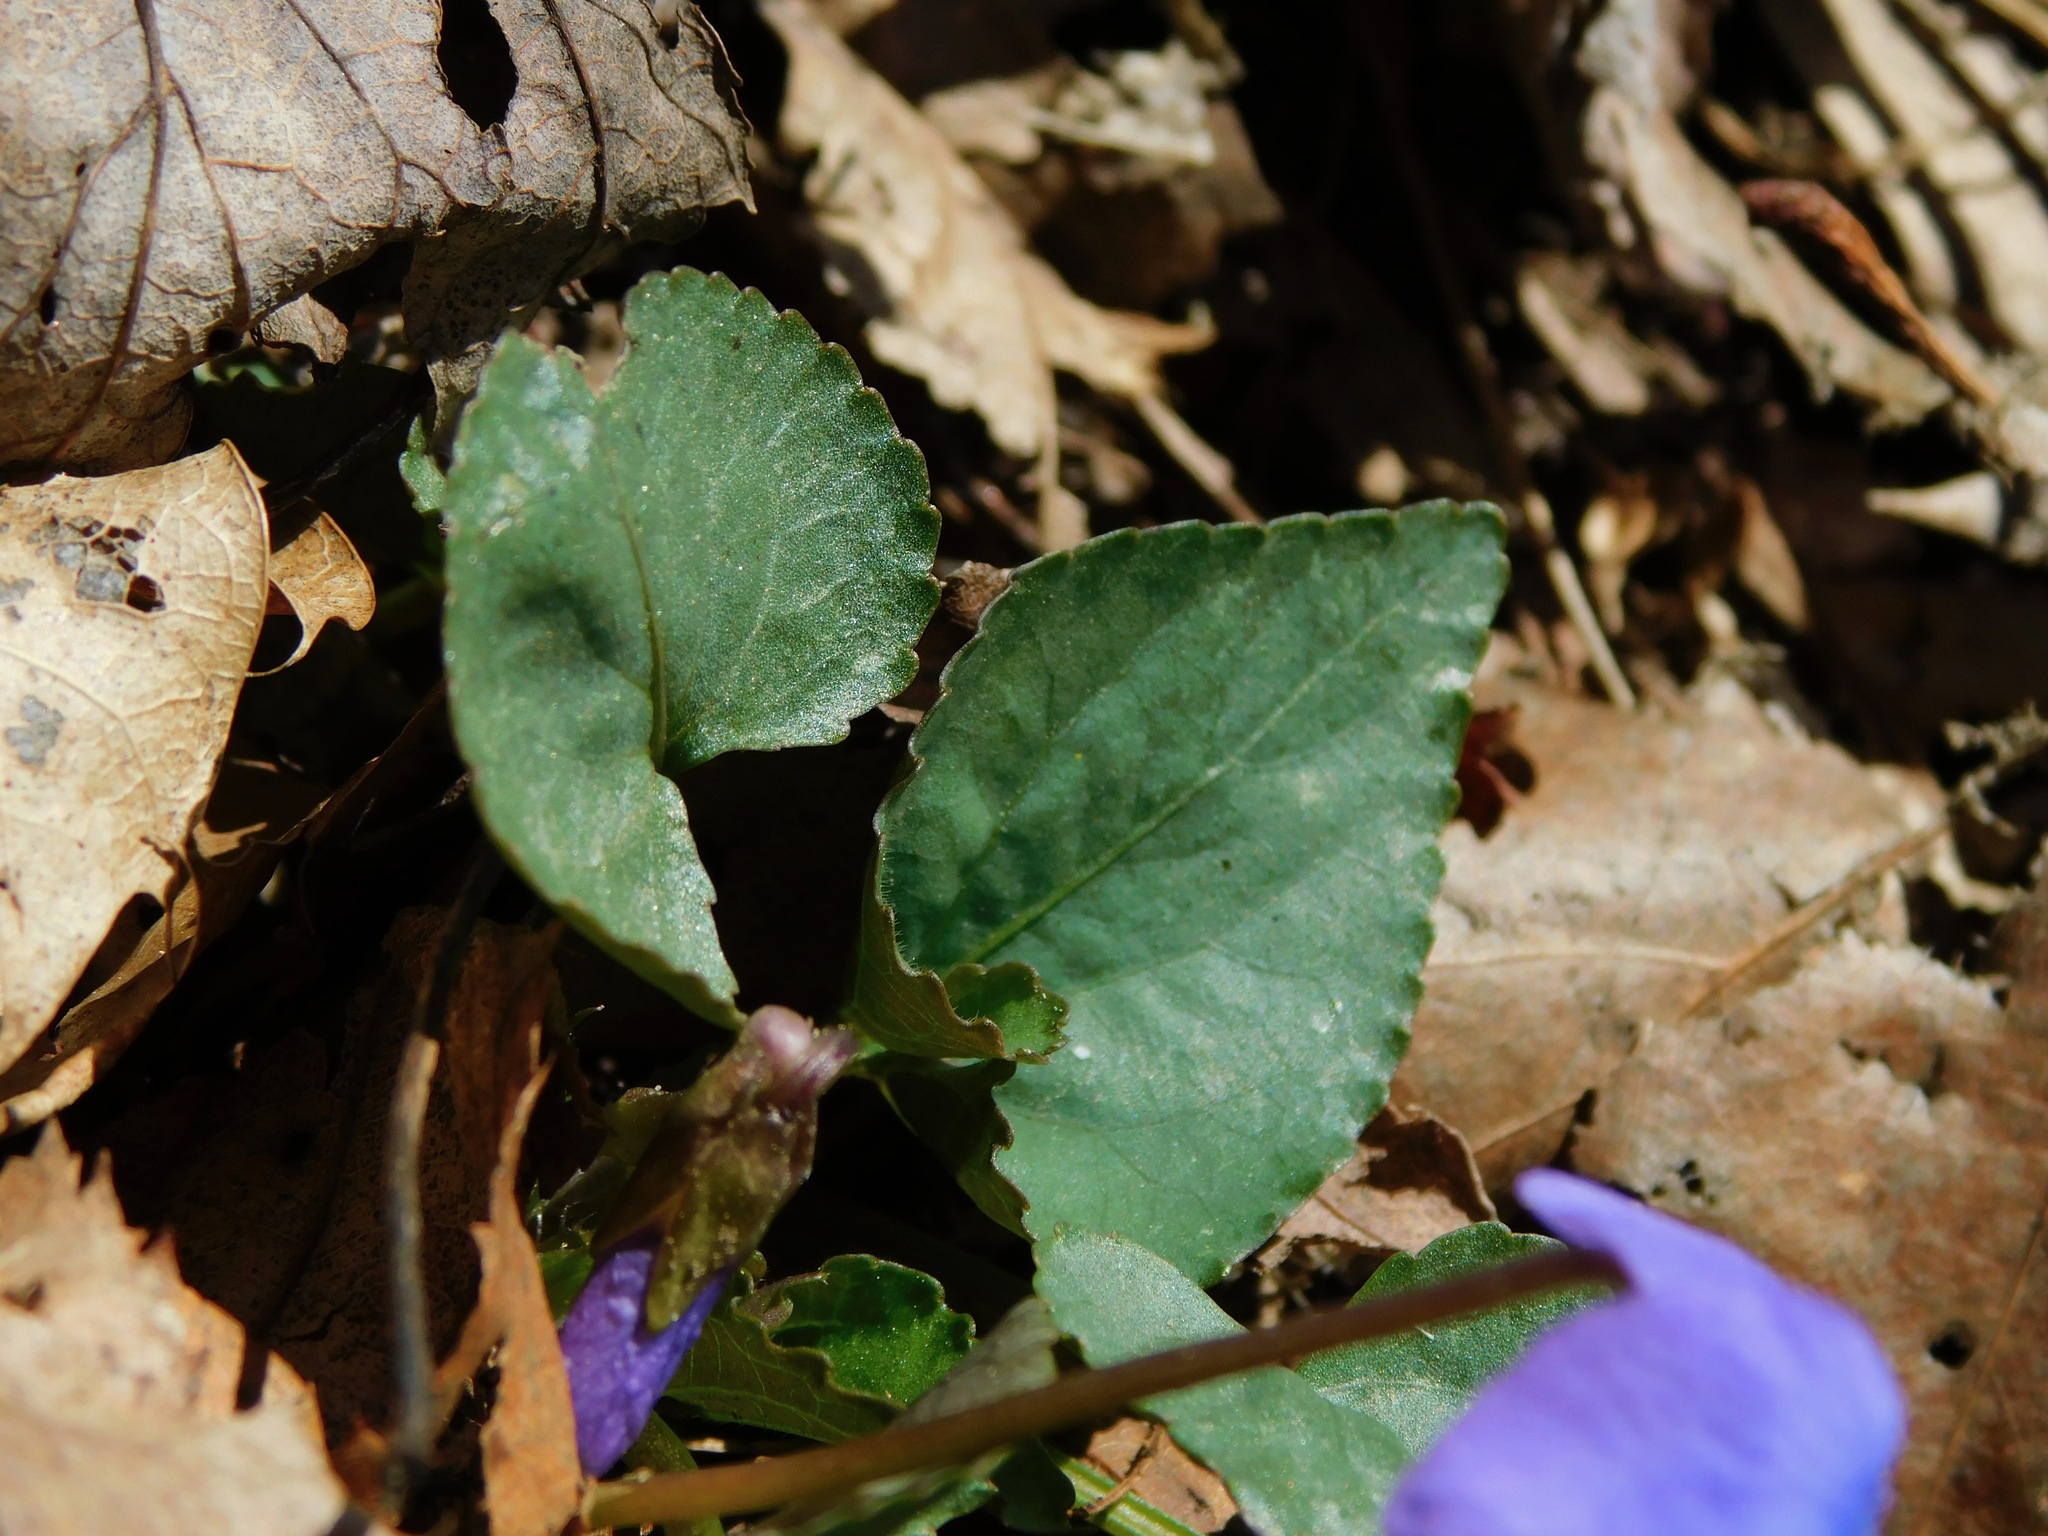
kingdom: Plantae
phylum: Tracheophyta
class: Magnoliopsida
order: Malpighiales
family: Violaceae
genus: Viola
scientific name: Viola hirsutula
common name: Southern wood violet
